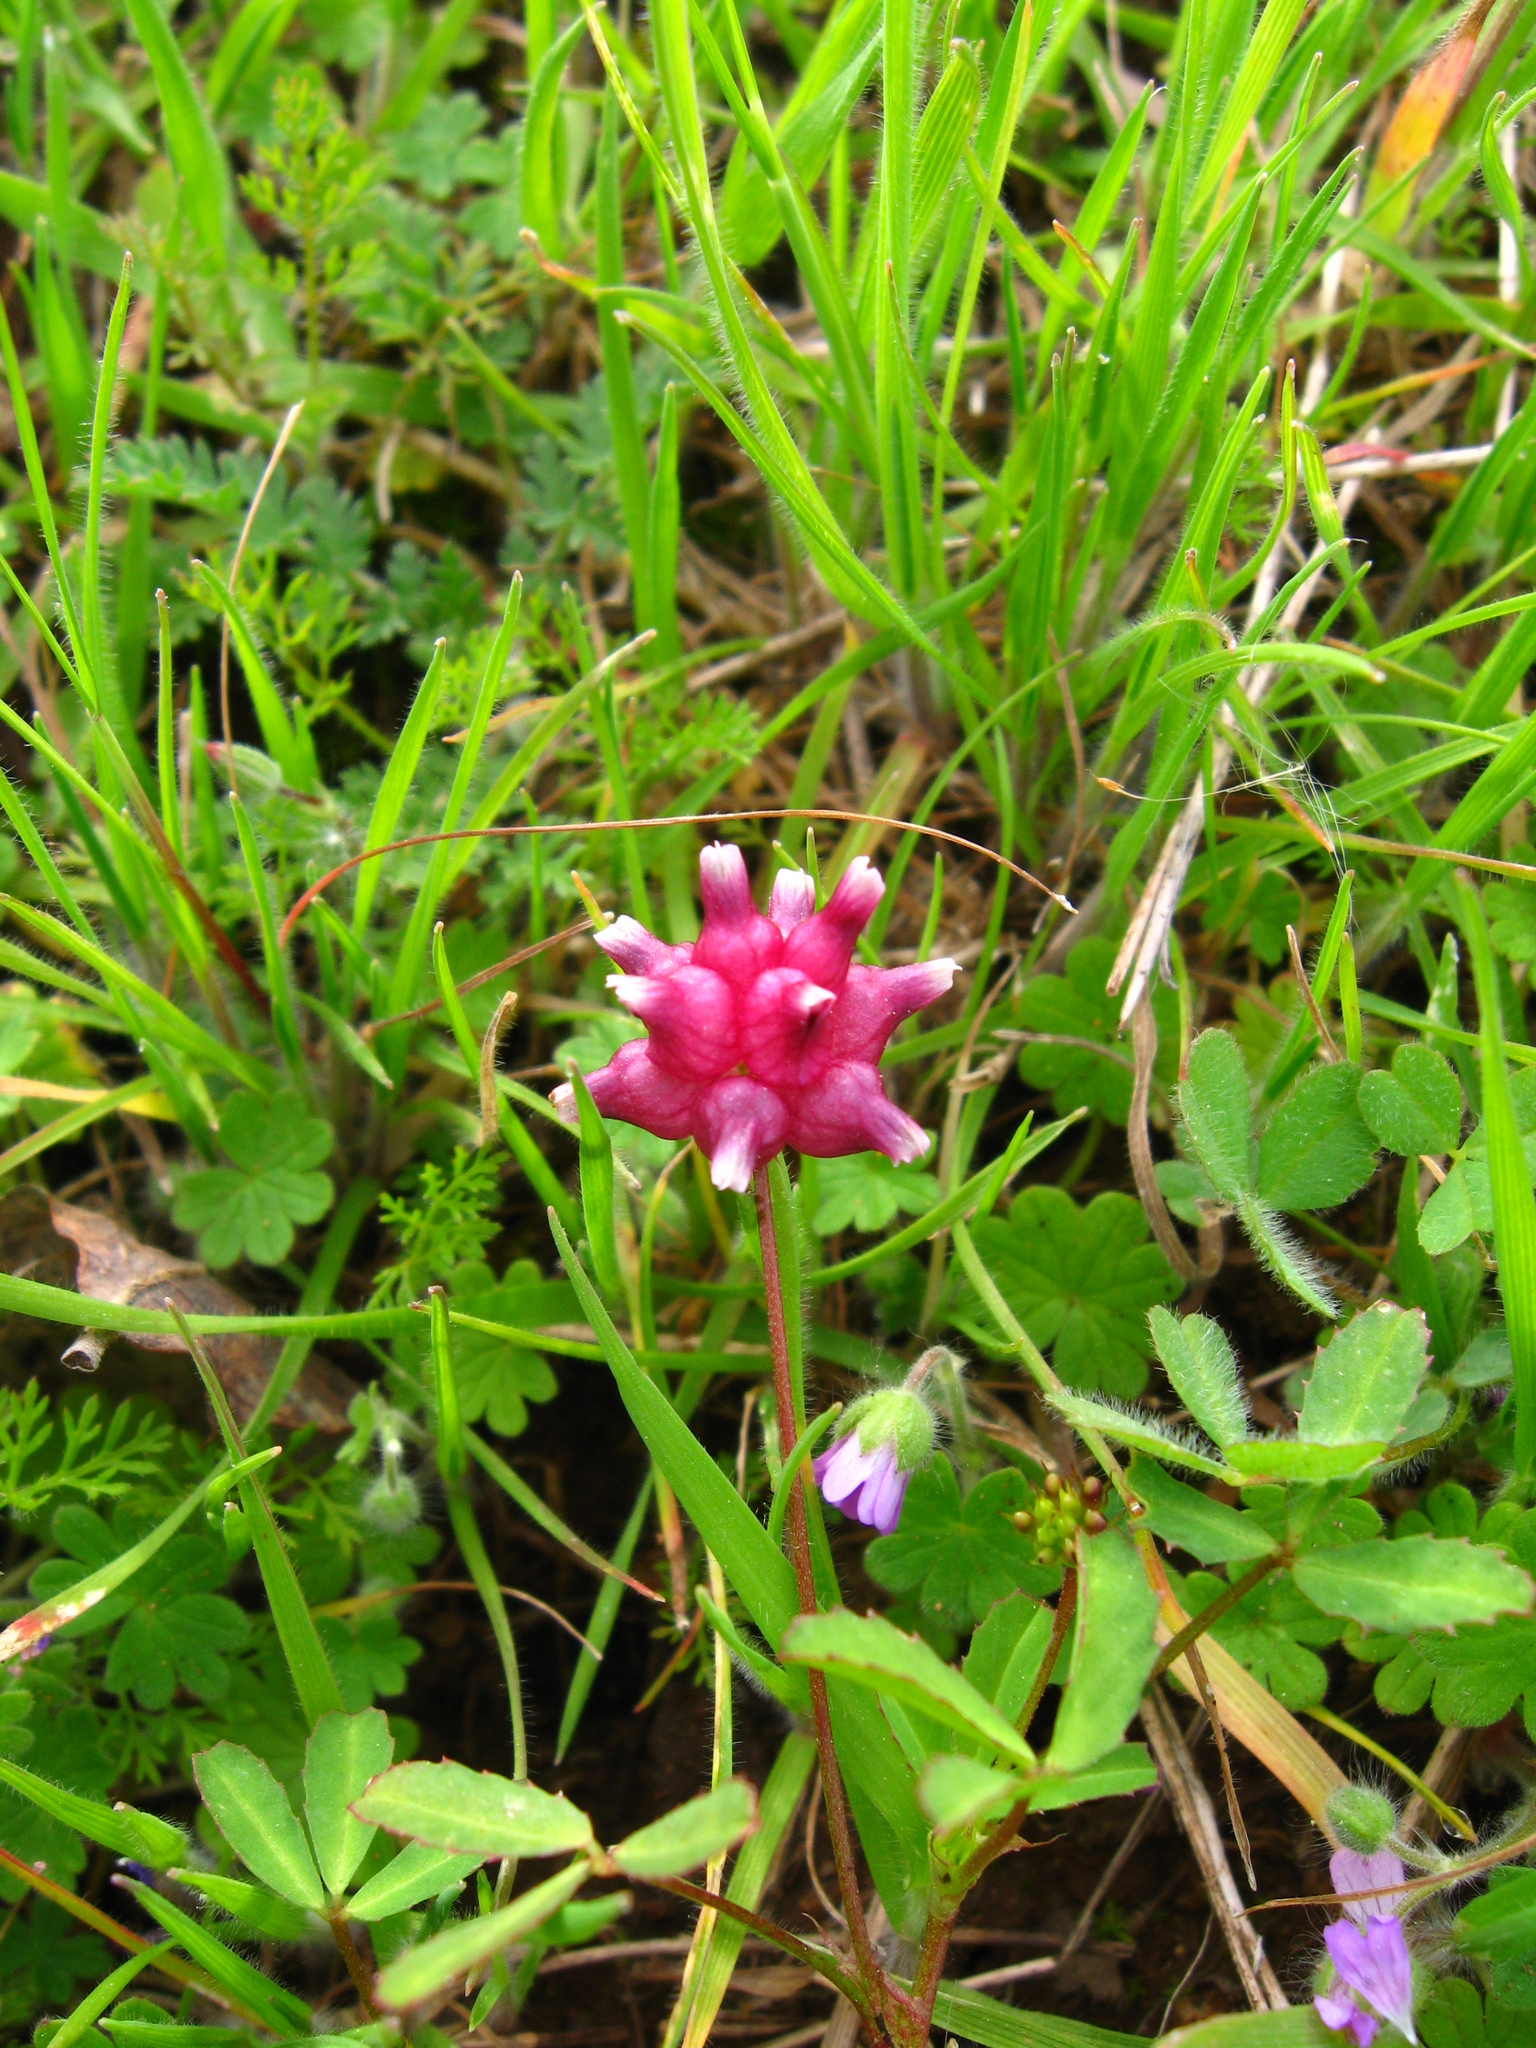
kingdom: Plantae
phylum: Tracheophyta
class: Magnoliopsida
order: Fabales
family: Fabaceae
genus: Trifolium
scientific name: Trifolium depauperatum
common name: Poverty clover
